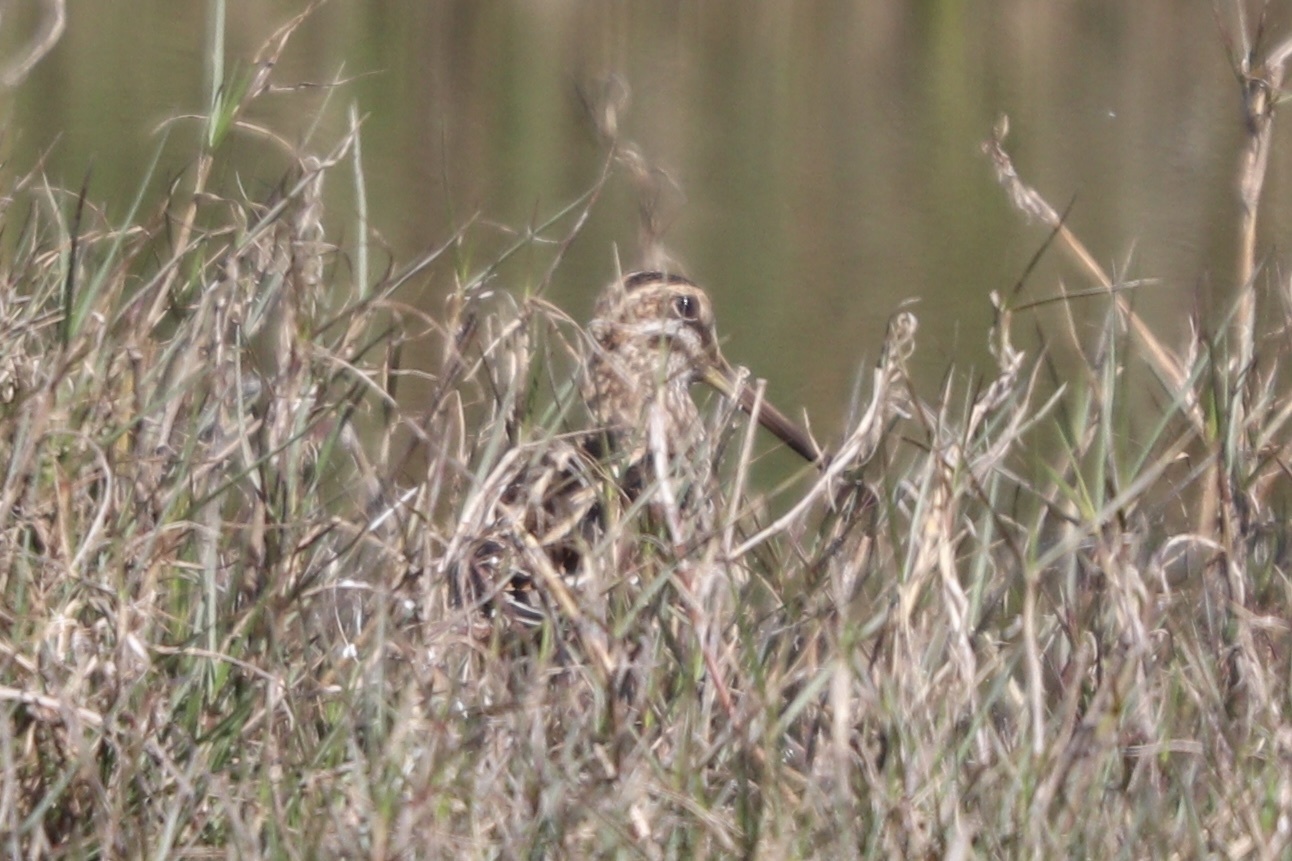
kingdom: Animalia
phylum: Chordata
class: Aves
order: Charadriiformes
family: Scolopacidae
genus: Gallinago
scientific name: Gallinago delicata
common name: Wilson's snipe
